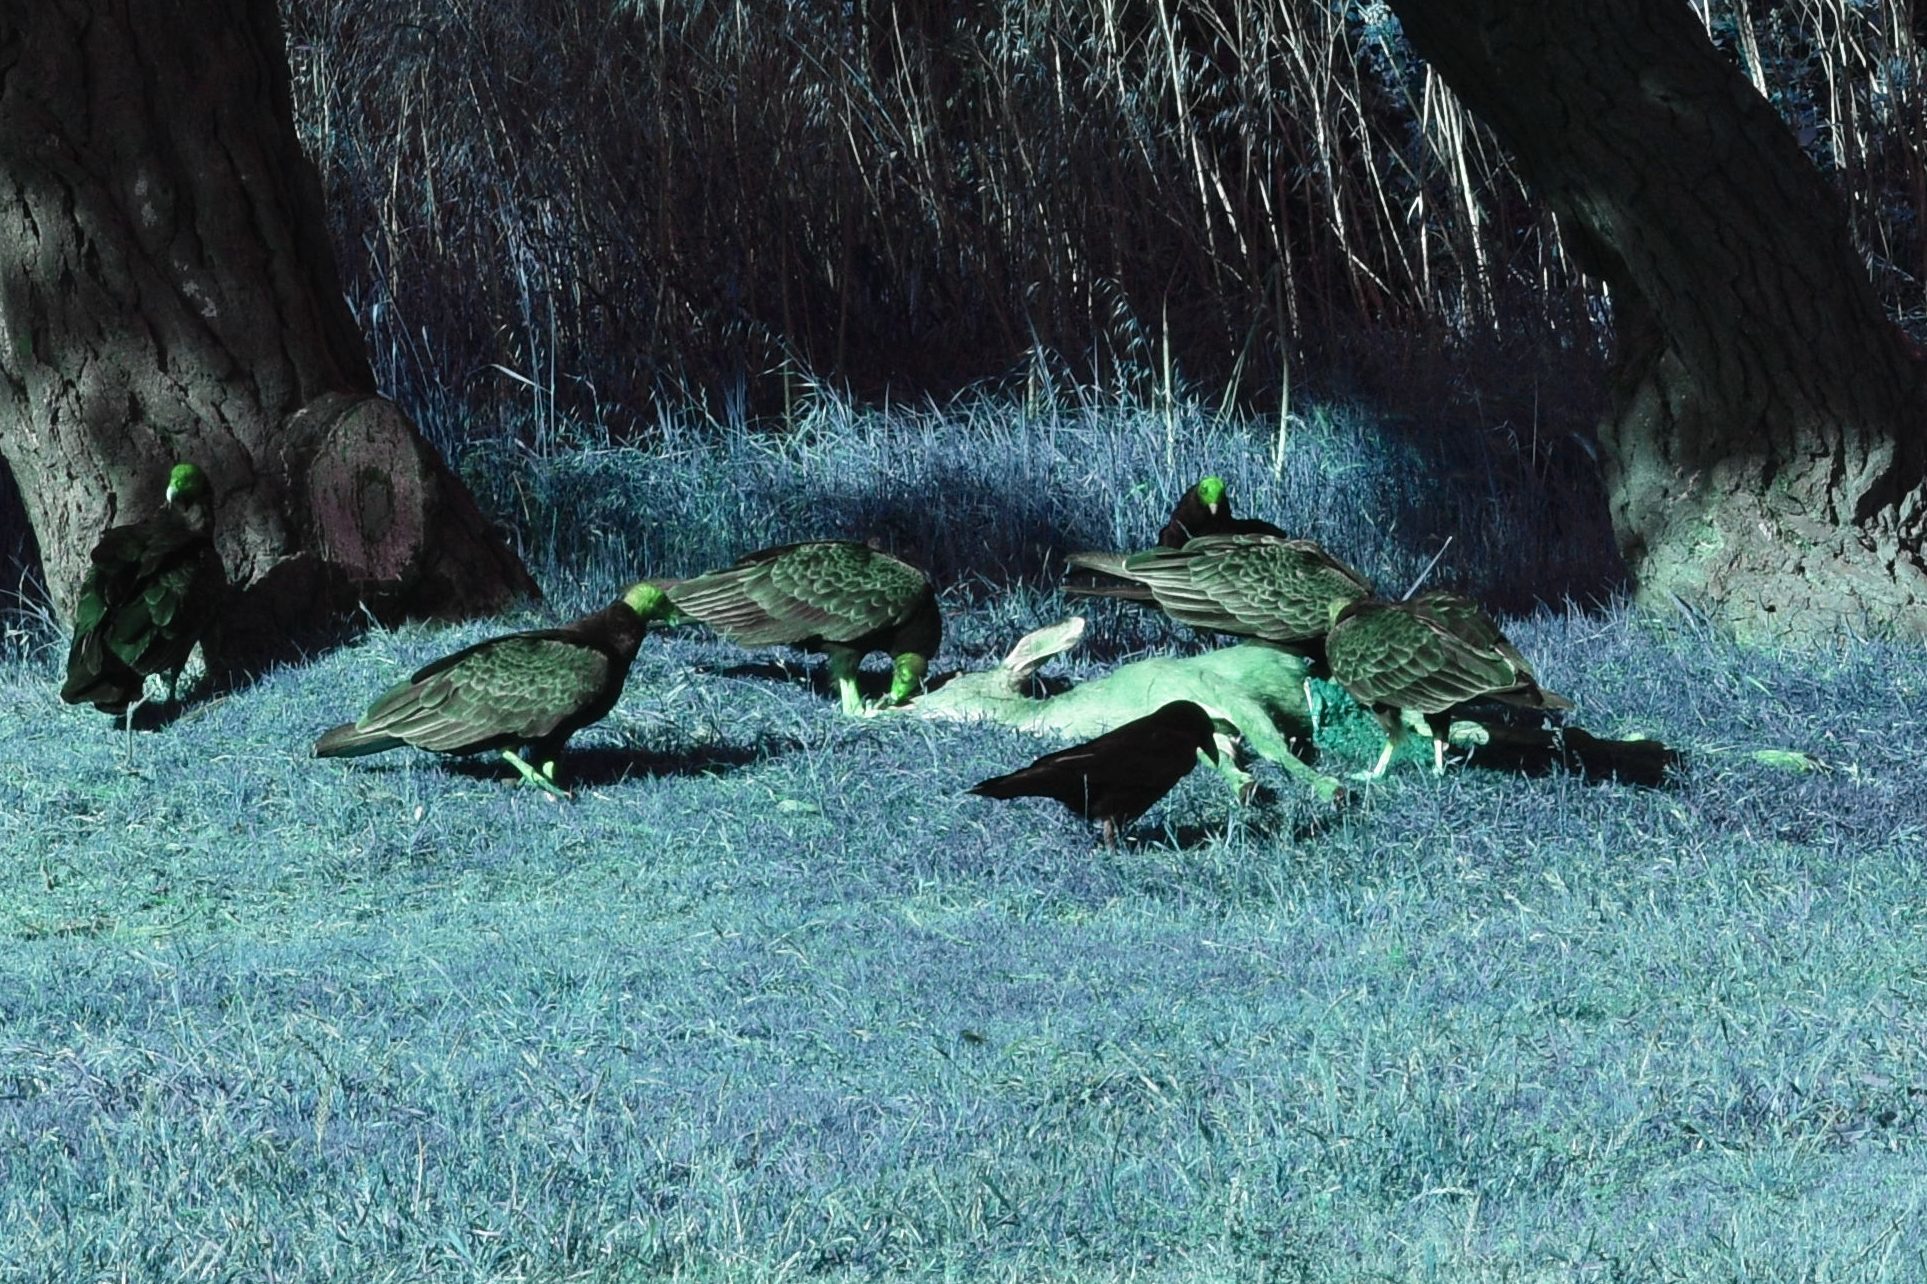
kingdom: Animalia
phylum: Chordata
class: Aves
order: Accipitriformes
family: Cathartidae
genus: Cathartes
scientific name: Cathartes aura
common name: Turkey vulture
